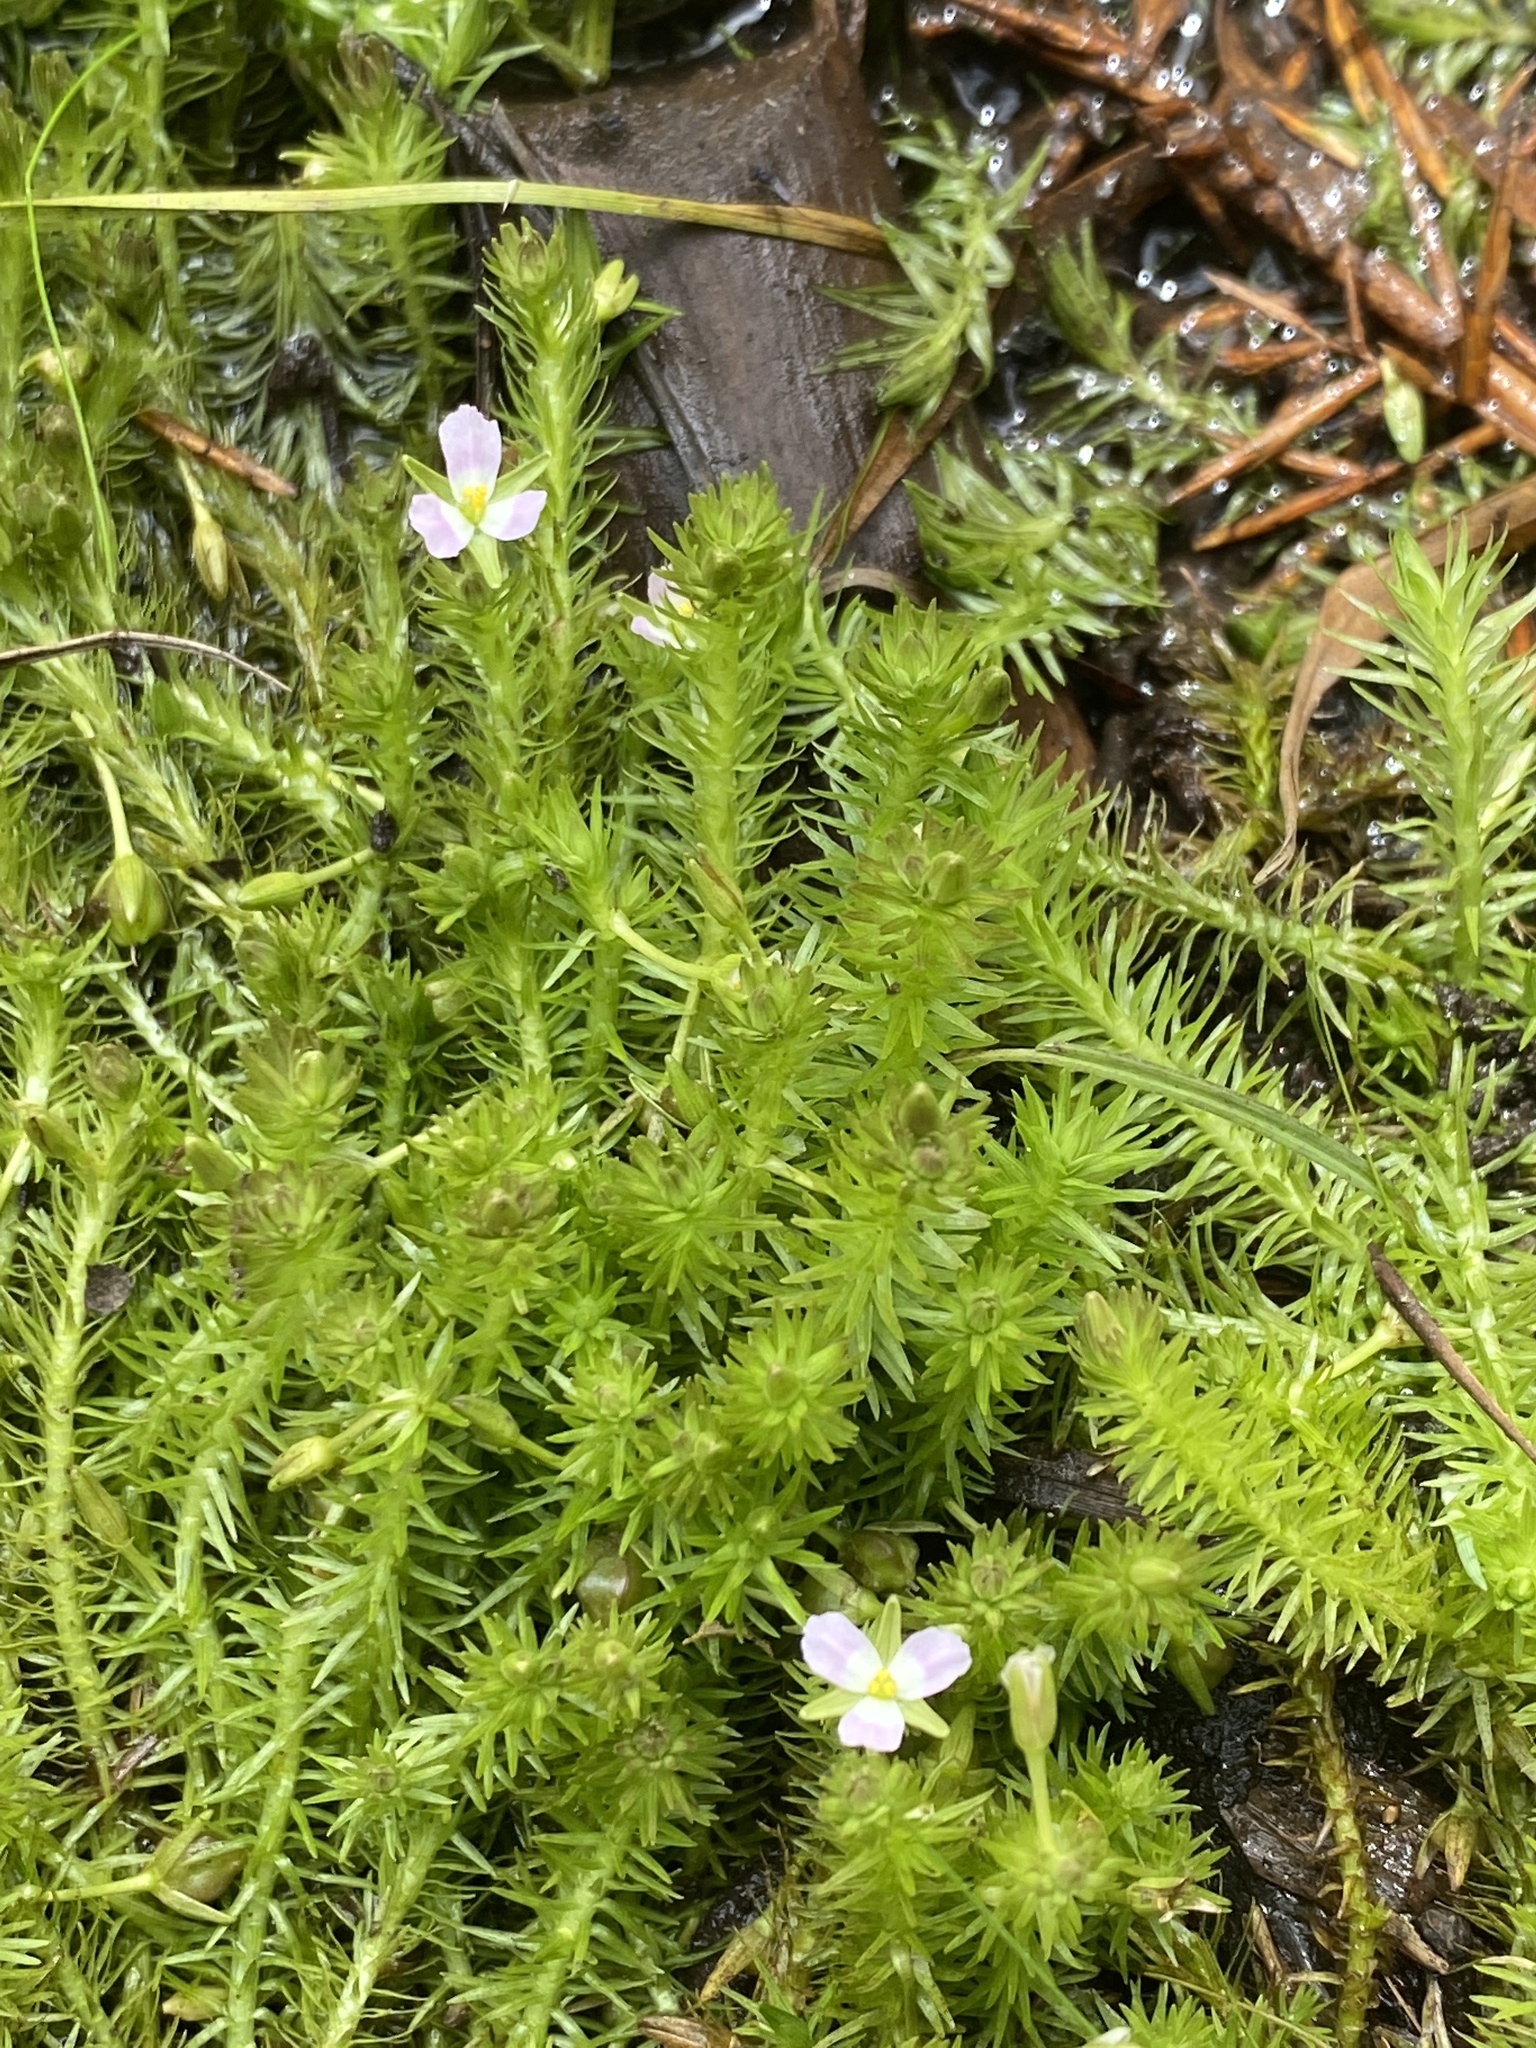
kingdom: Plantae
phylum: Tracheophyta
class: Liliopsida
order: Poales
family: Mayacaceae
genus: Mayaca
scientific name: Mayaca fluviatilis
